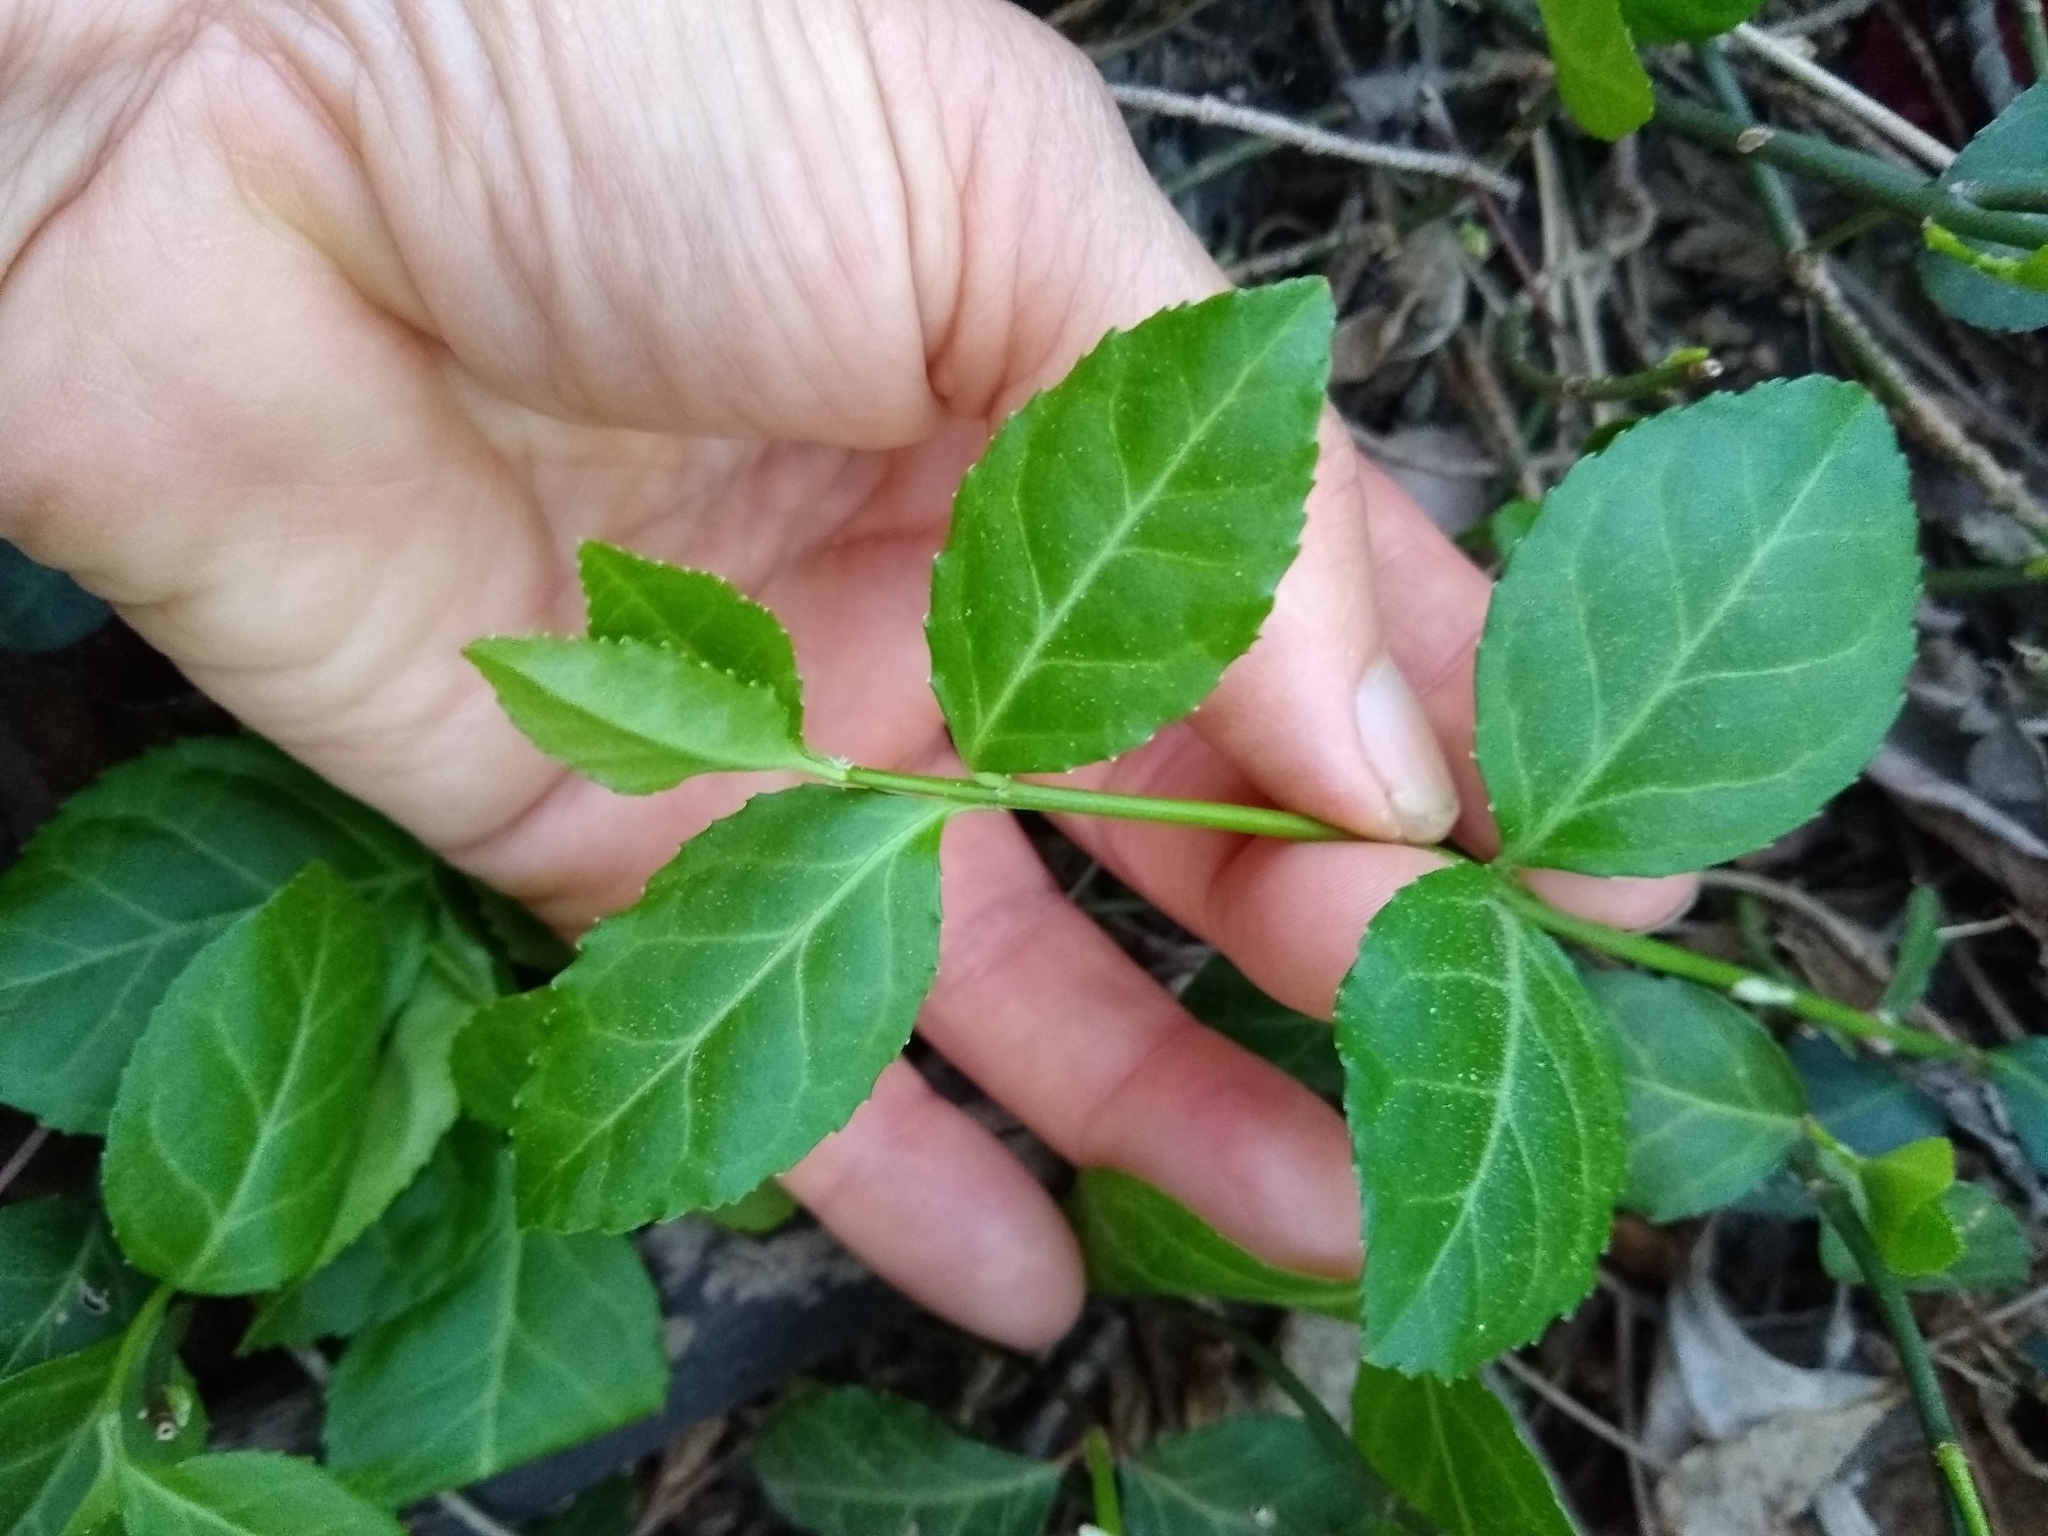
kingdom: Plantae
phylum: Tracheophyta
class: Magnoliopsida
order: Celastrales
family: Celastraceae
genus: Euonymus
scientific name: Euonymus fortunei
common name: Climbing euonymus
